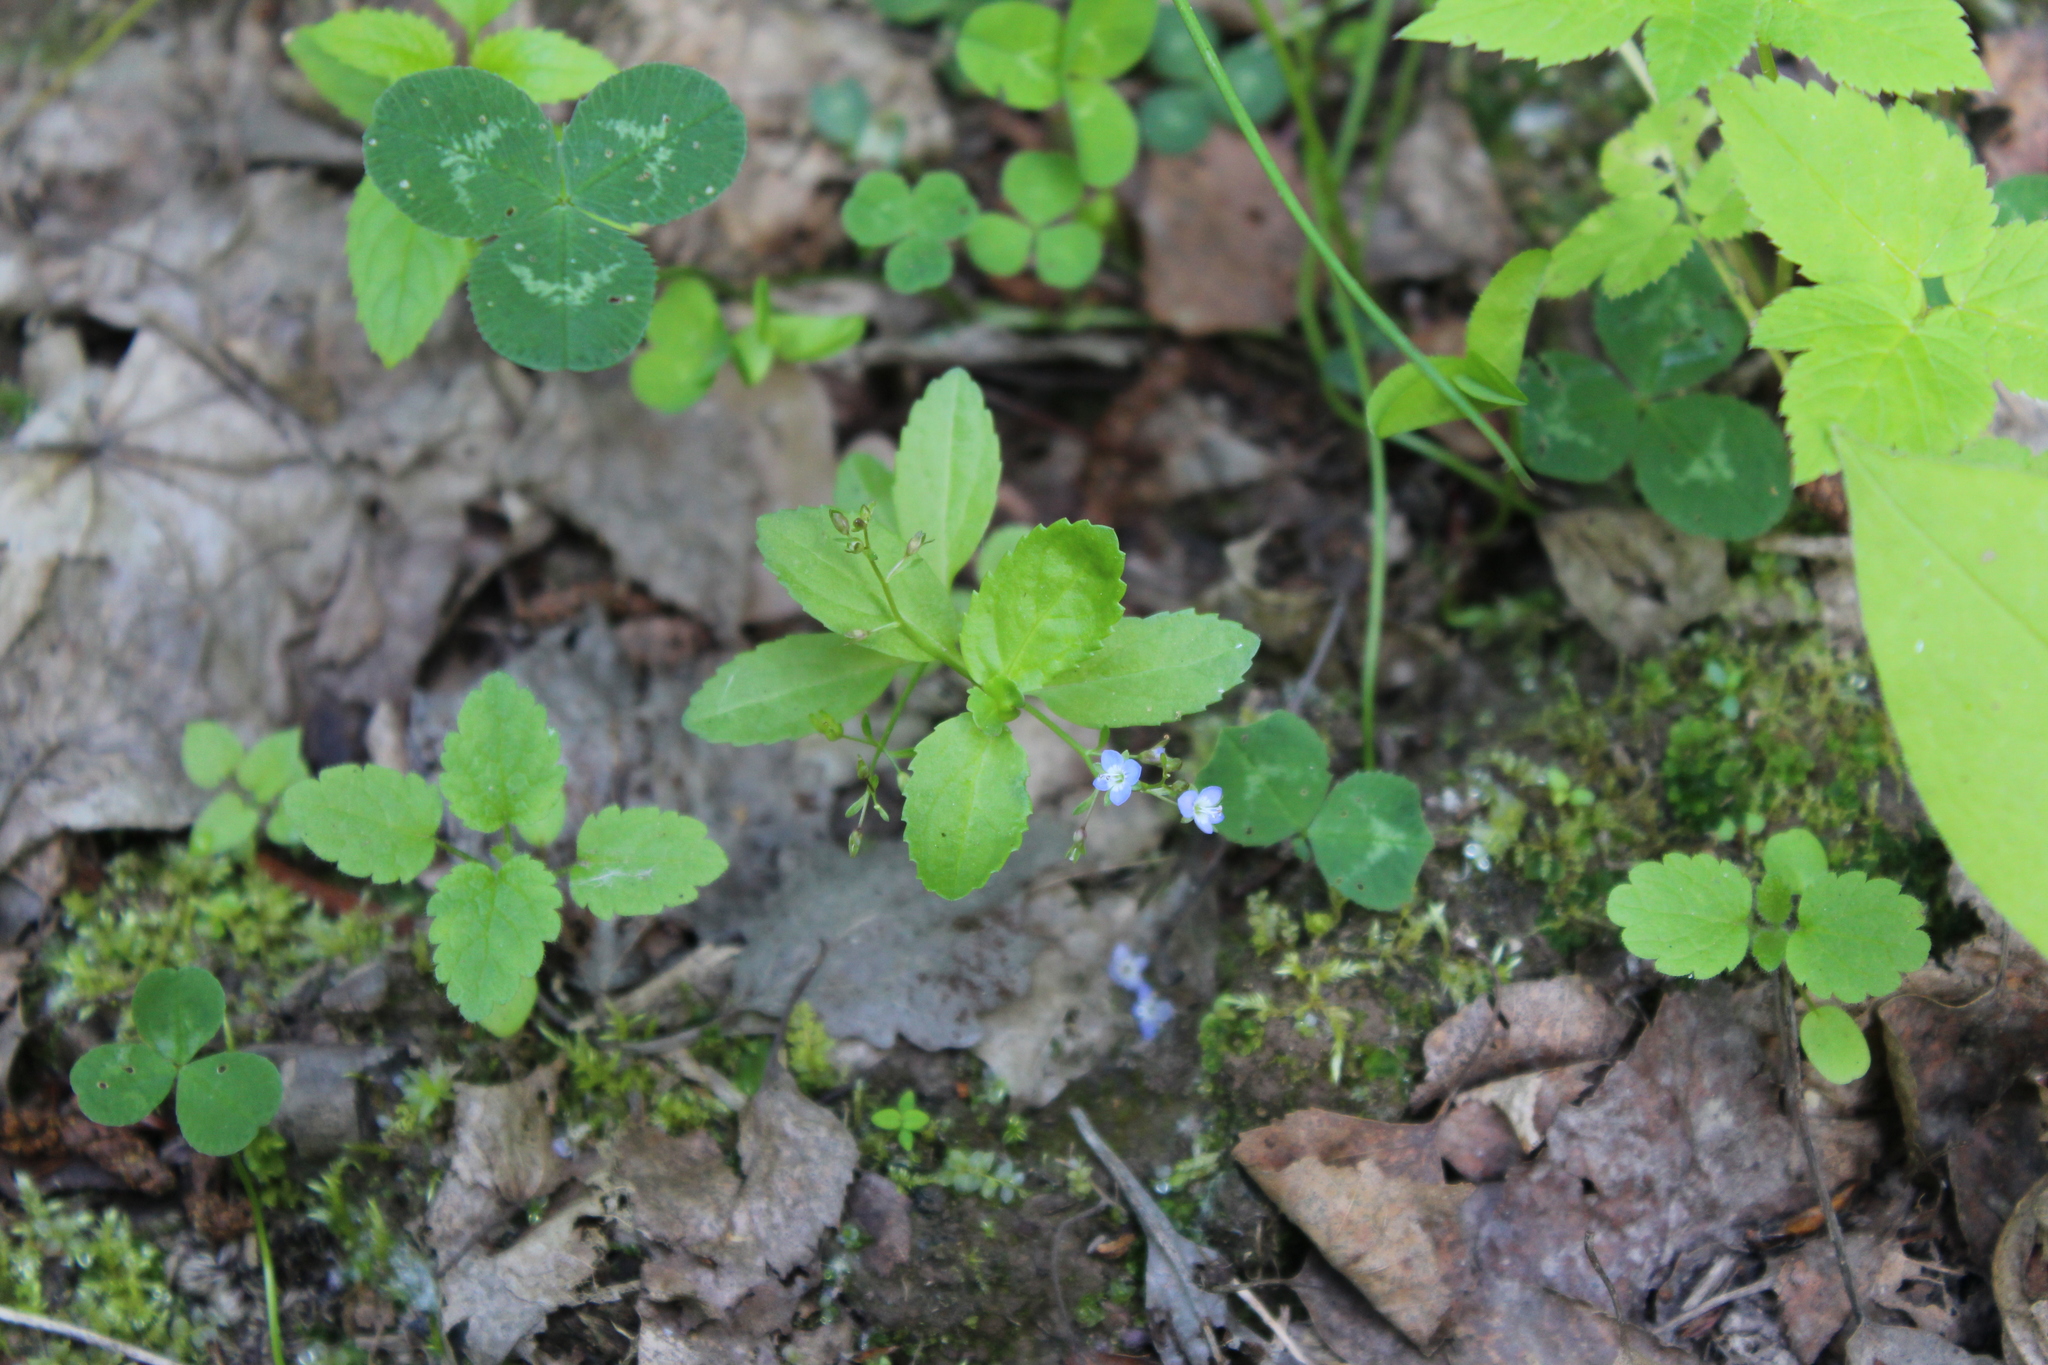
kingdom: Plantae
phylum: Tracheophyta
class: Magnoliopsida
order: Lamiales
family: Plantaginaceae
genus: Veronica
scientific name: Veronica beccabunga
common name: Brooklime
